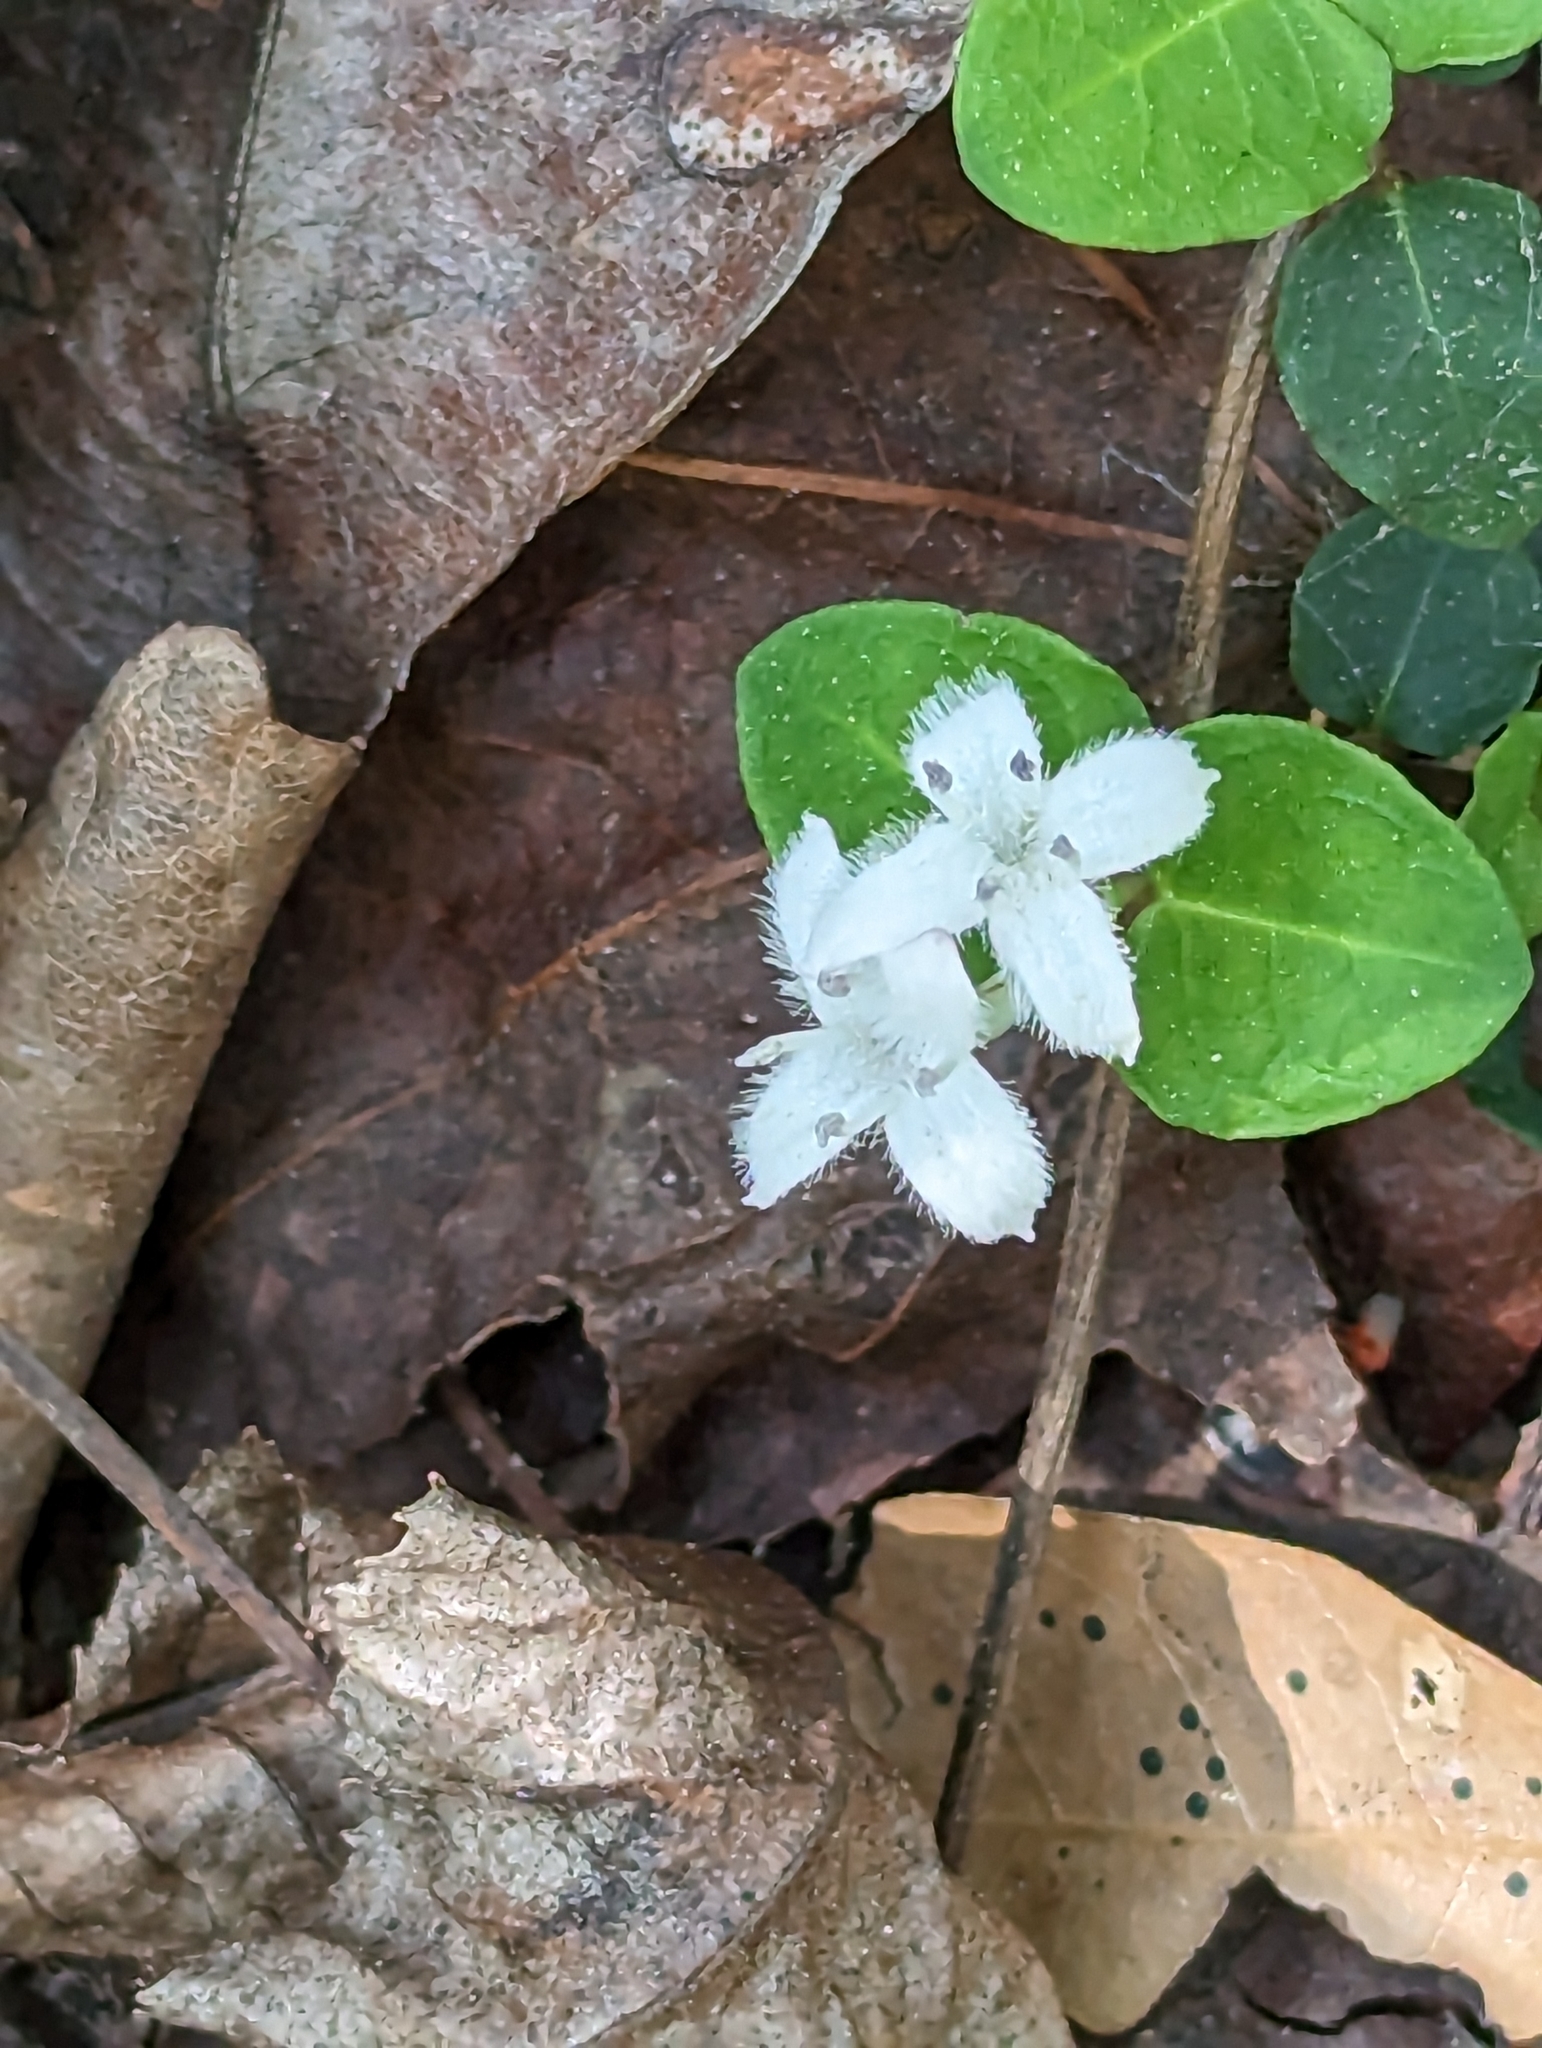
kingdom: Plantae
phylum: Tracheophyta
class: Magnoliopsida
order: Gentianales
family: Rubiaceae
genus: Mitchella
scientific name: Mitchella repens
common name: Partridge-berry
